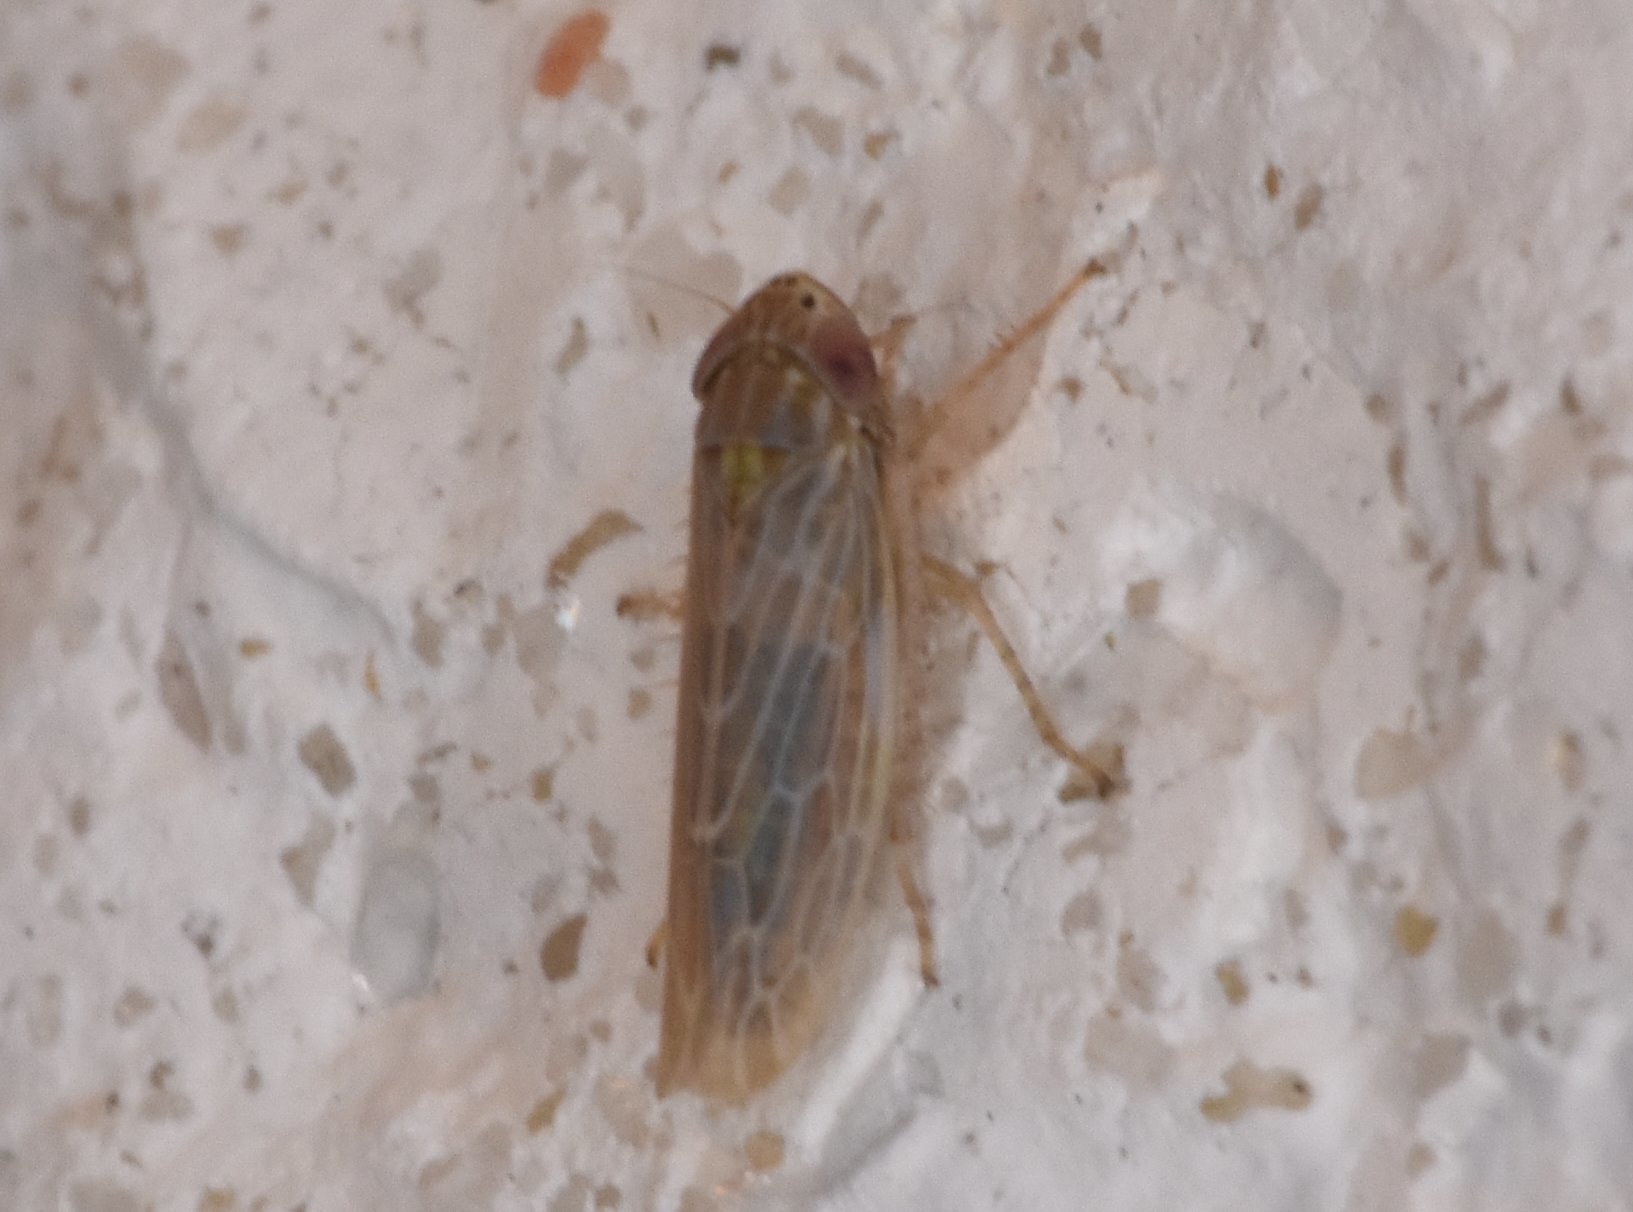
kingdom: Animalia
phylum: Arthropoda
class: Insecta
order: Hemiptera
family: Cicadellidae
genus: Graminella
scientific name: Graminella sonora
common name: Lesser lawn leafhopper
